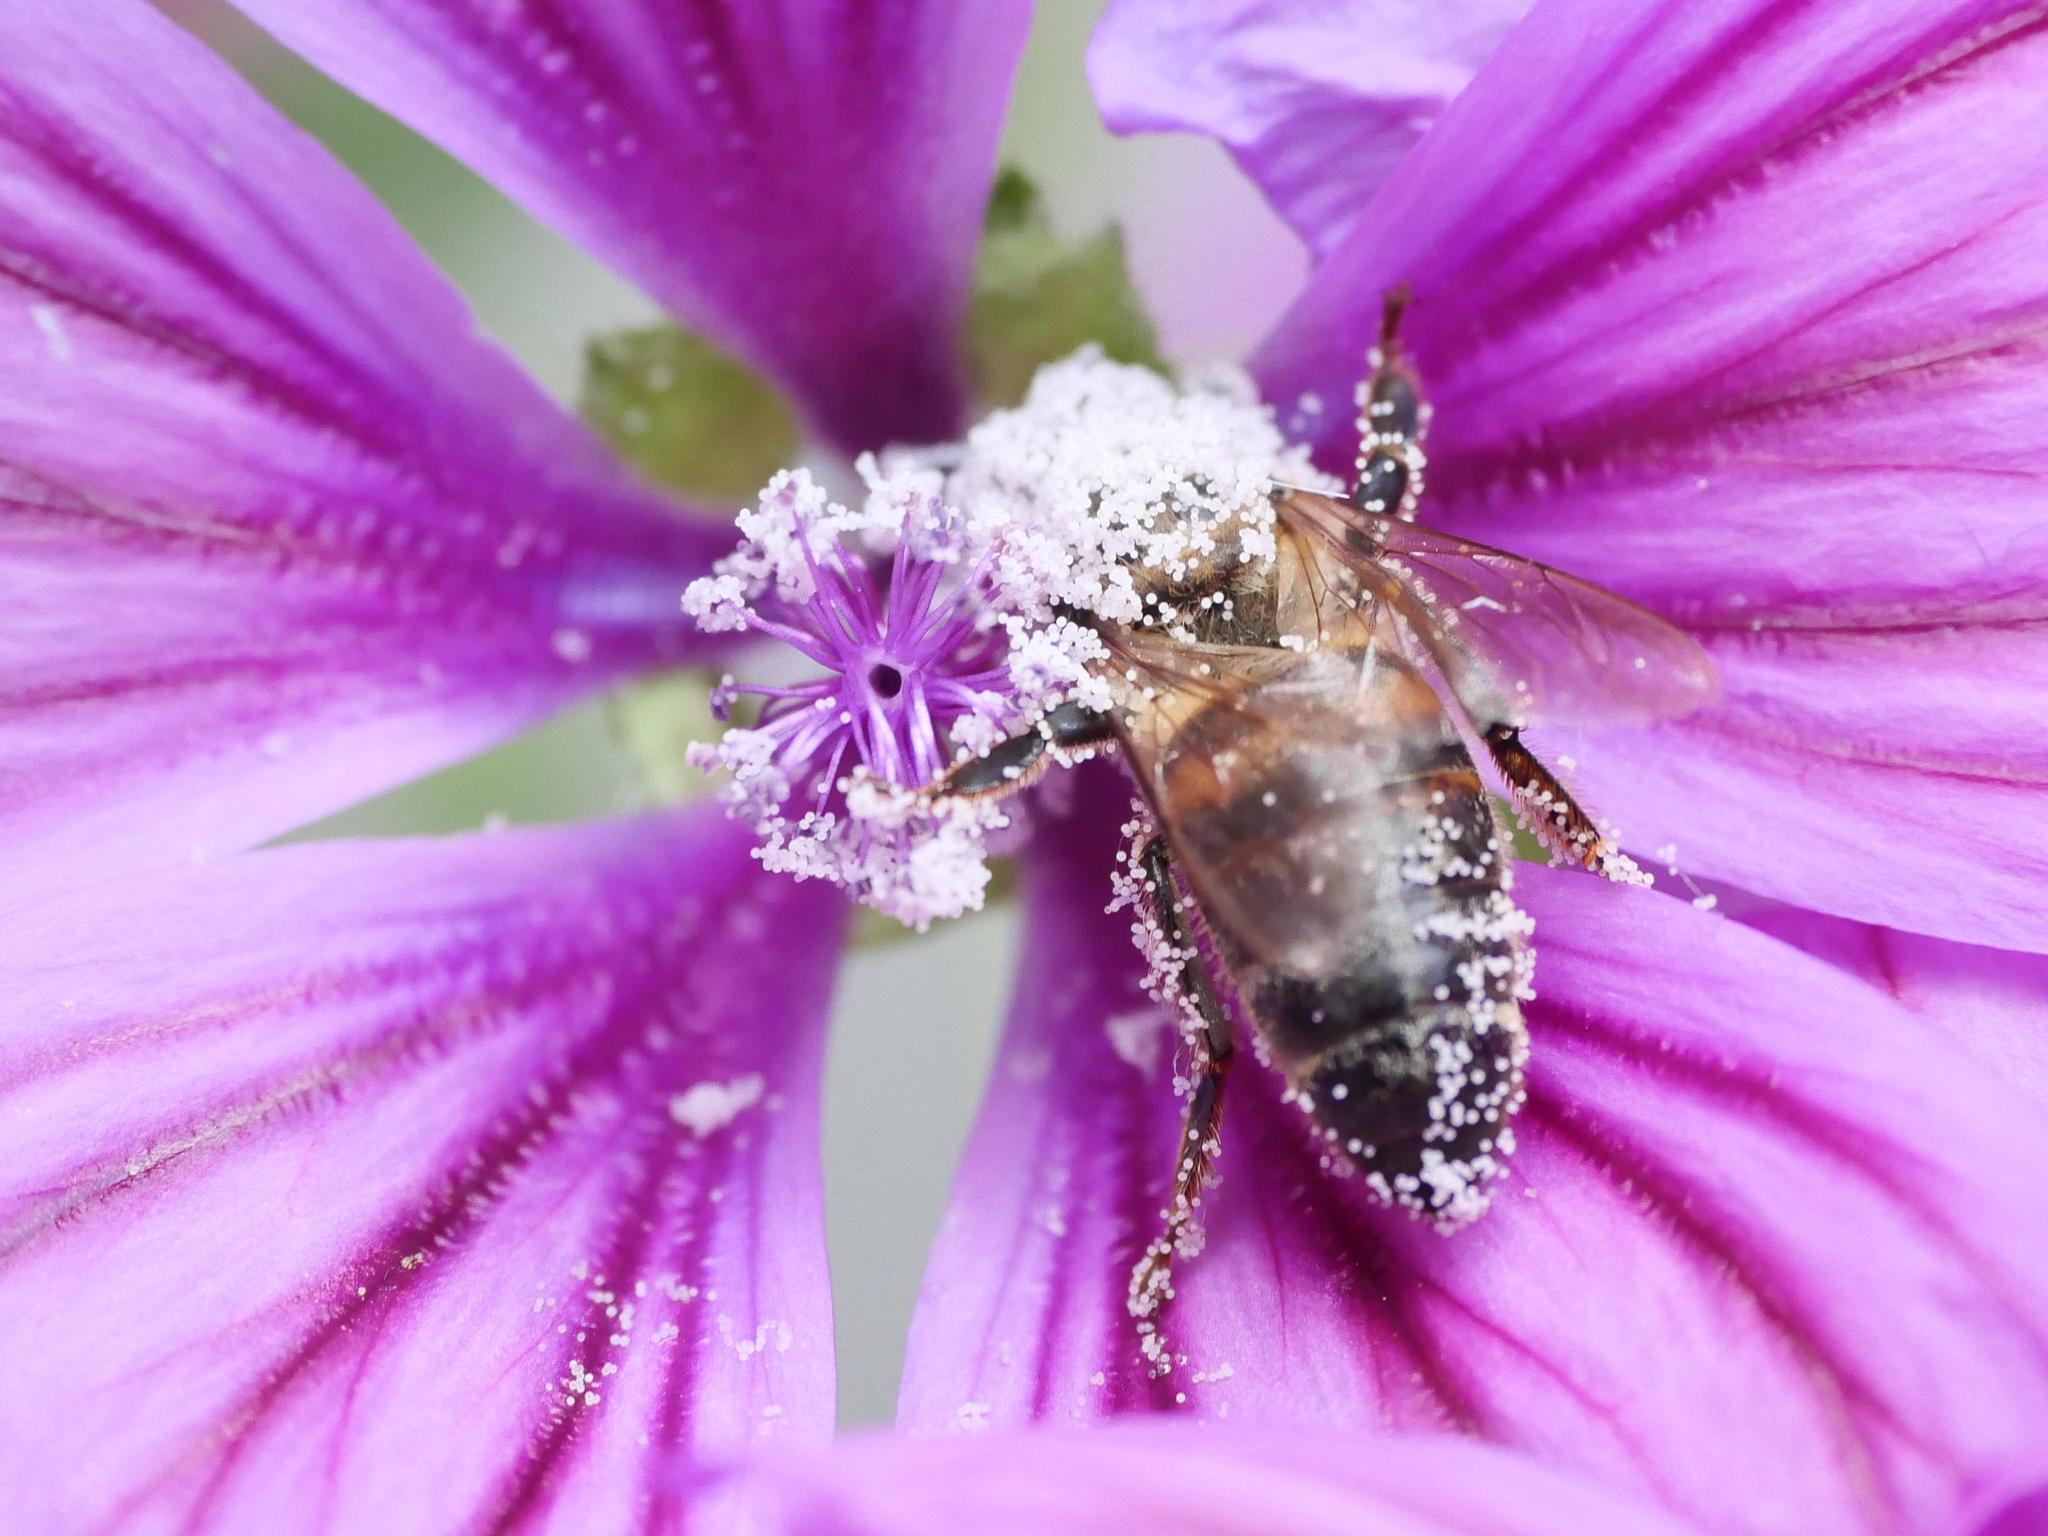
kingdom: Animalia
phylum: Arthropoda
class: Insecta
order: Hymenoptera
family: Apidae
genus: Apis
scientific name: Apis mellifera
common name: Honey bee
